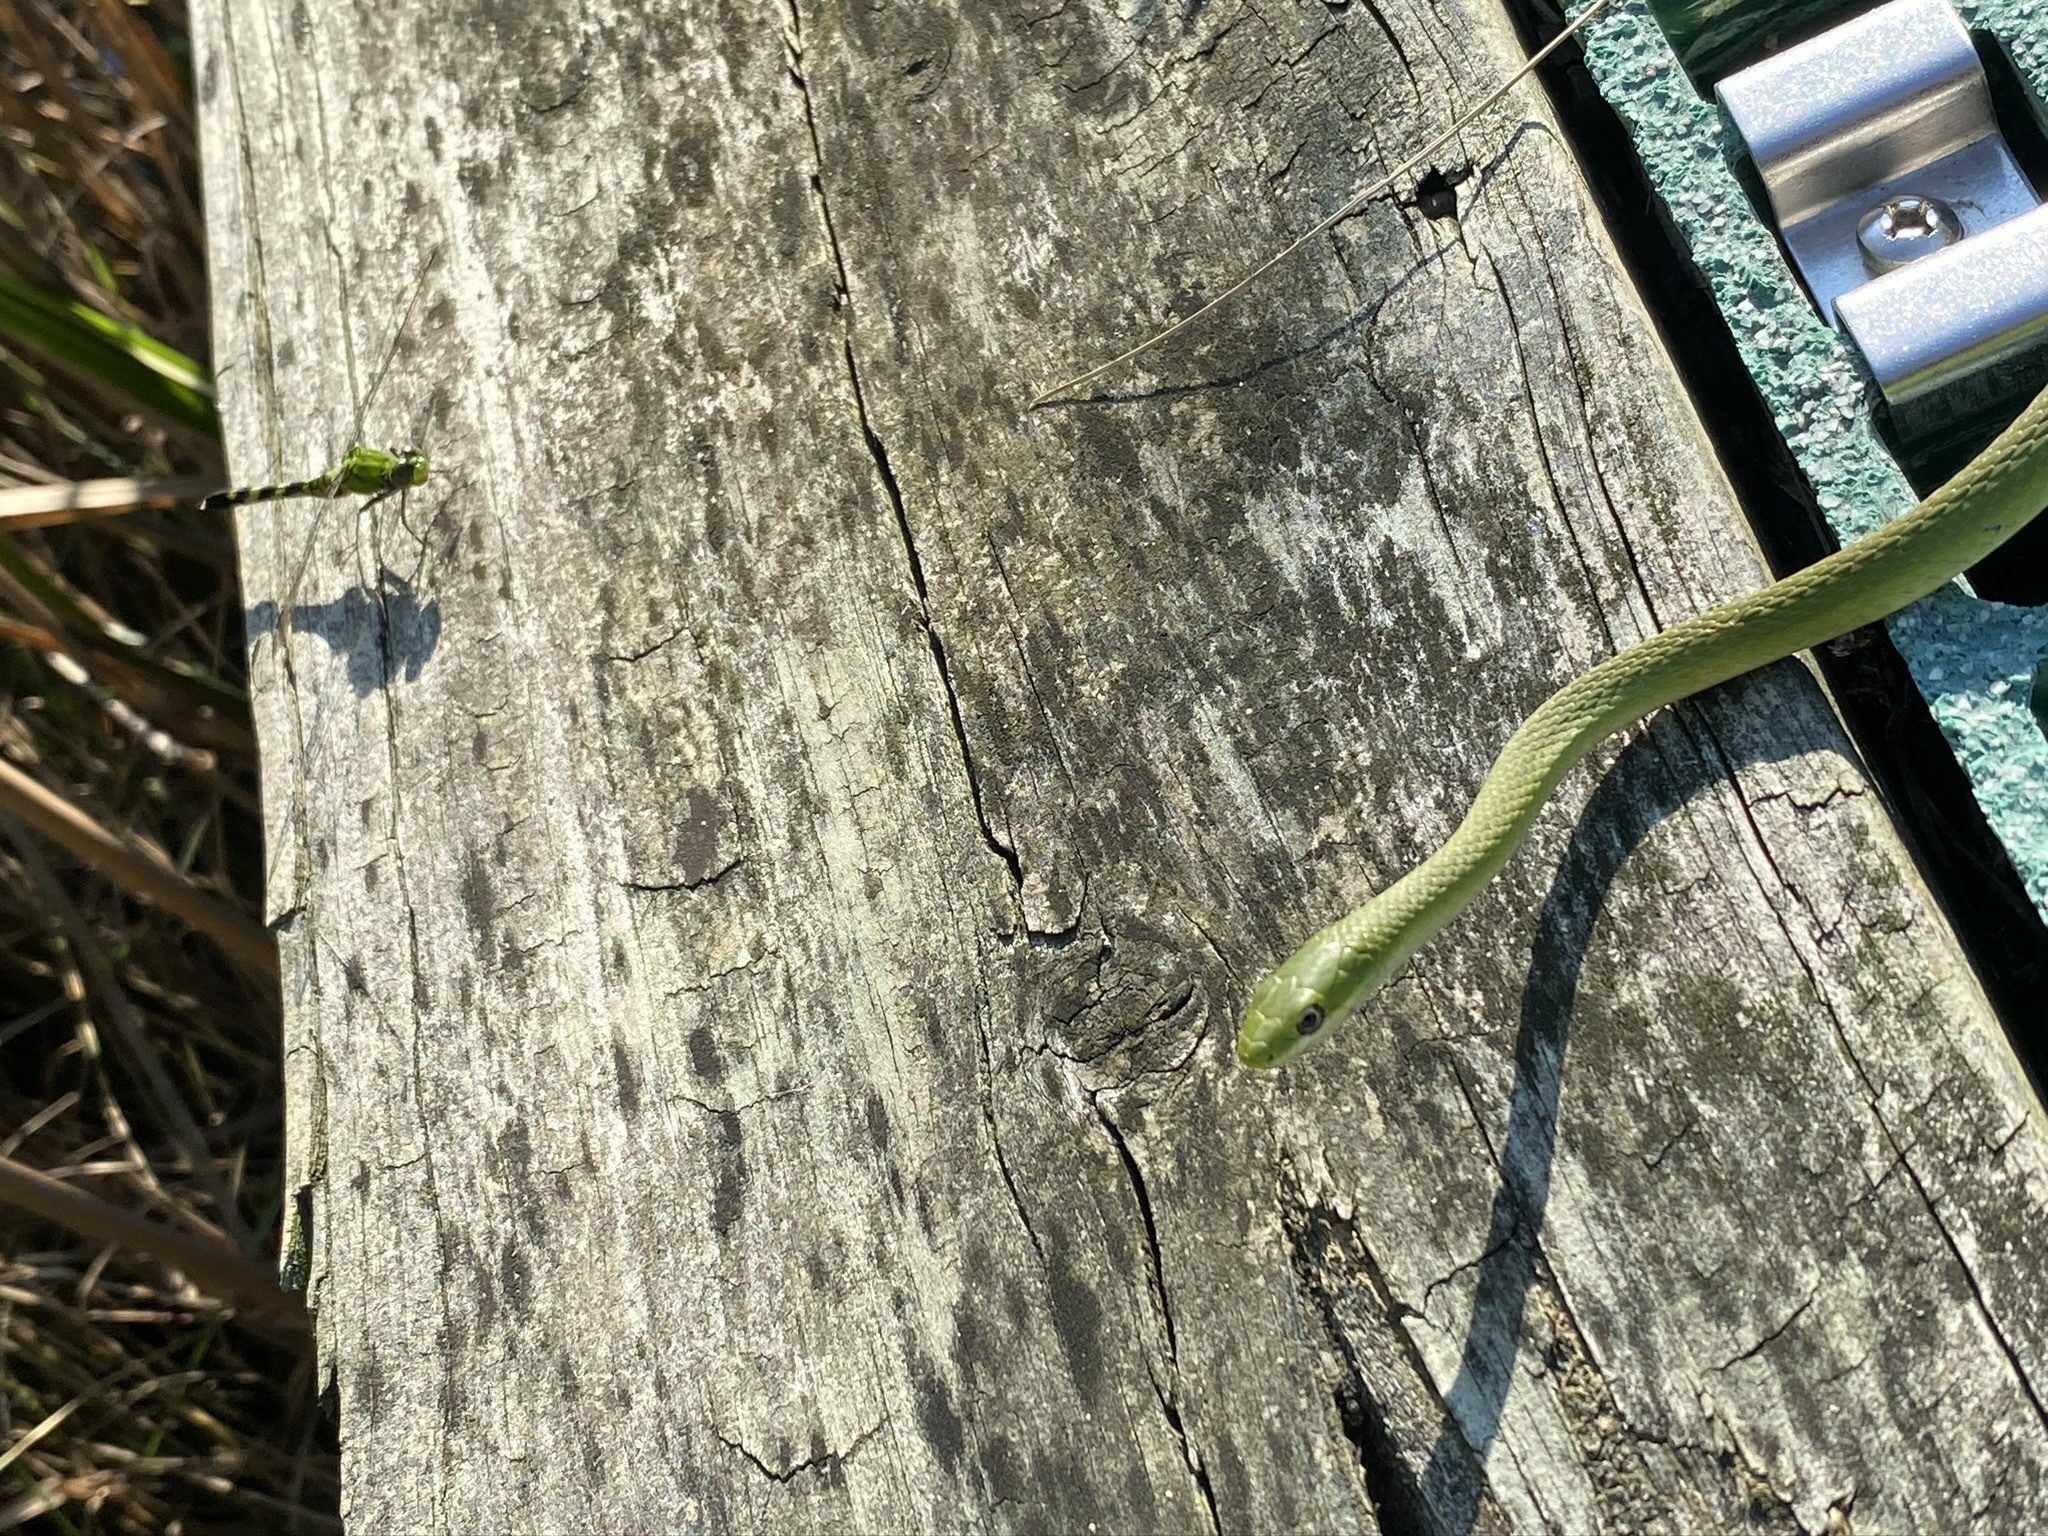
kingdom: Animalia
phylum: Chordata
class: Squamata
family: Colubridae
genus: Opheodrys
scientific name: Opheodrys aestivus
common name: Rough greensnake
